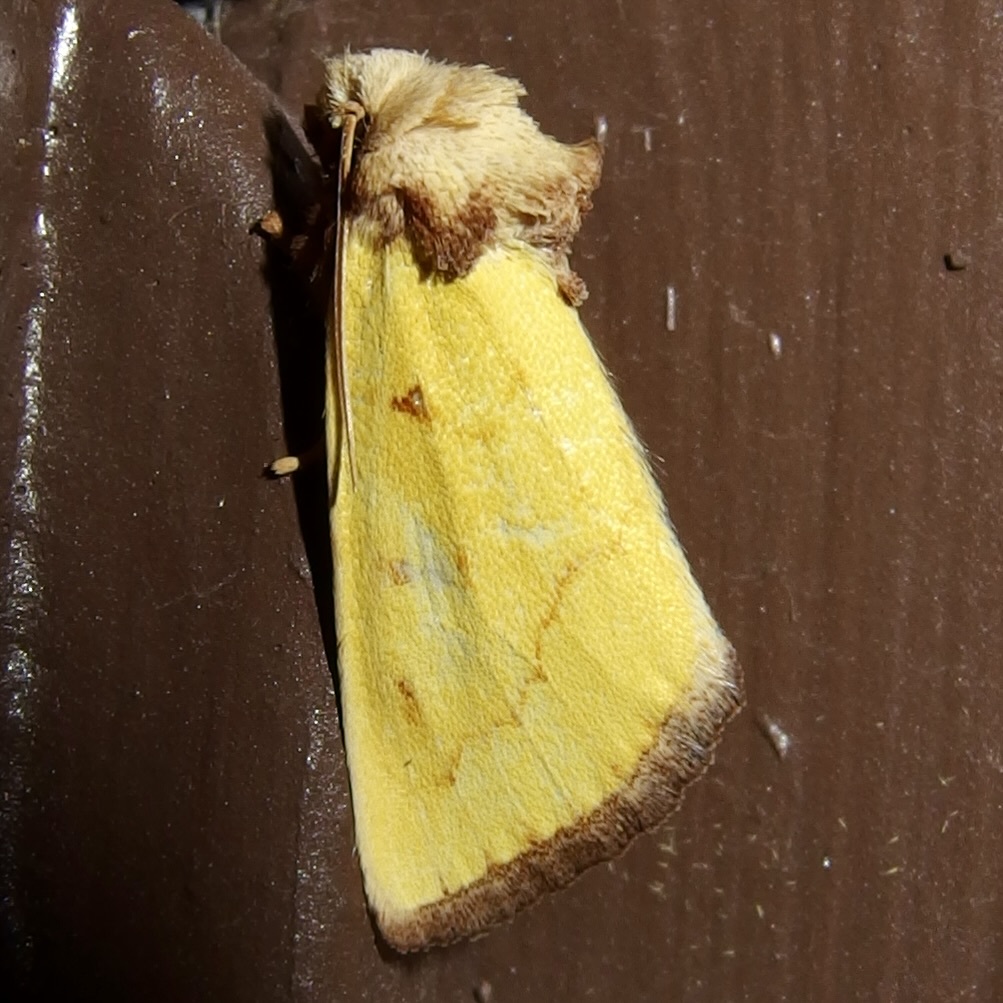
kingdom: Animalia
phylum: Arthropoda
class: Insecta
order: Lepidoptera
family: Noctuidae
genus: Nocloa
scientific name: Nocloa aliaga
